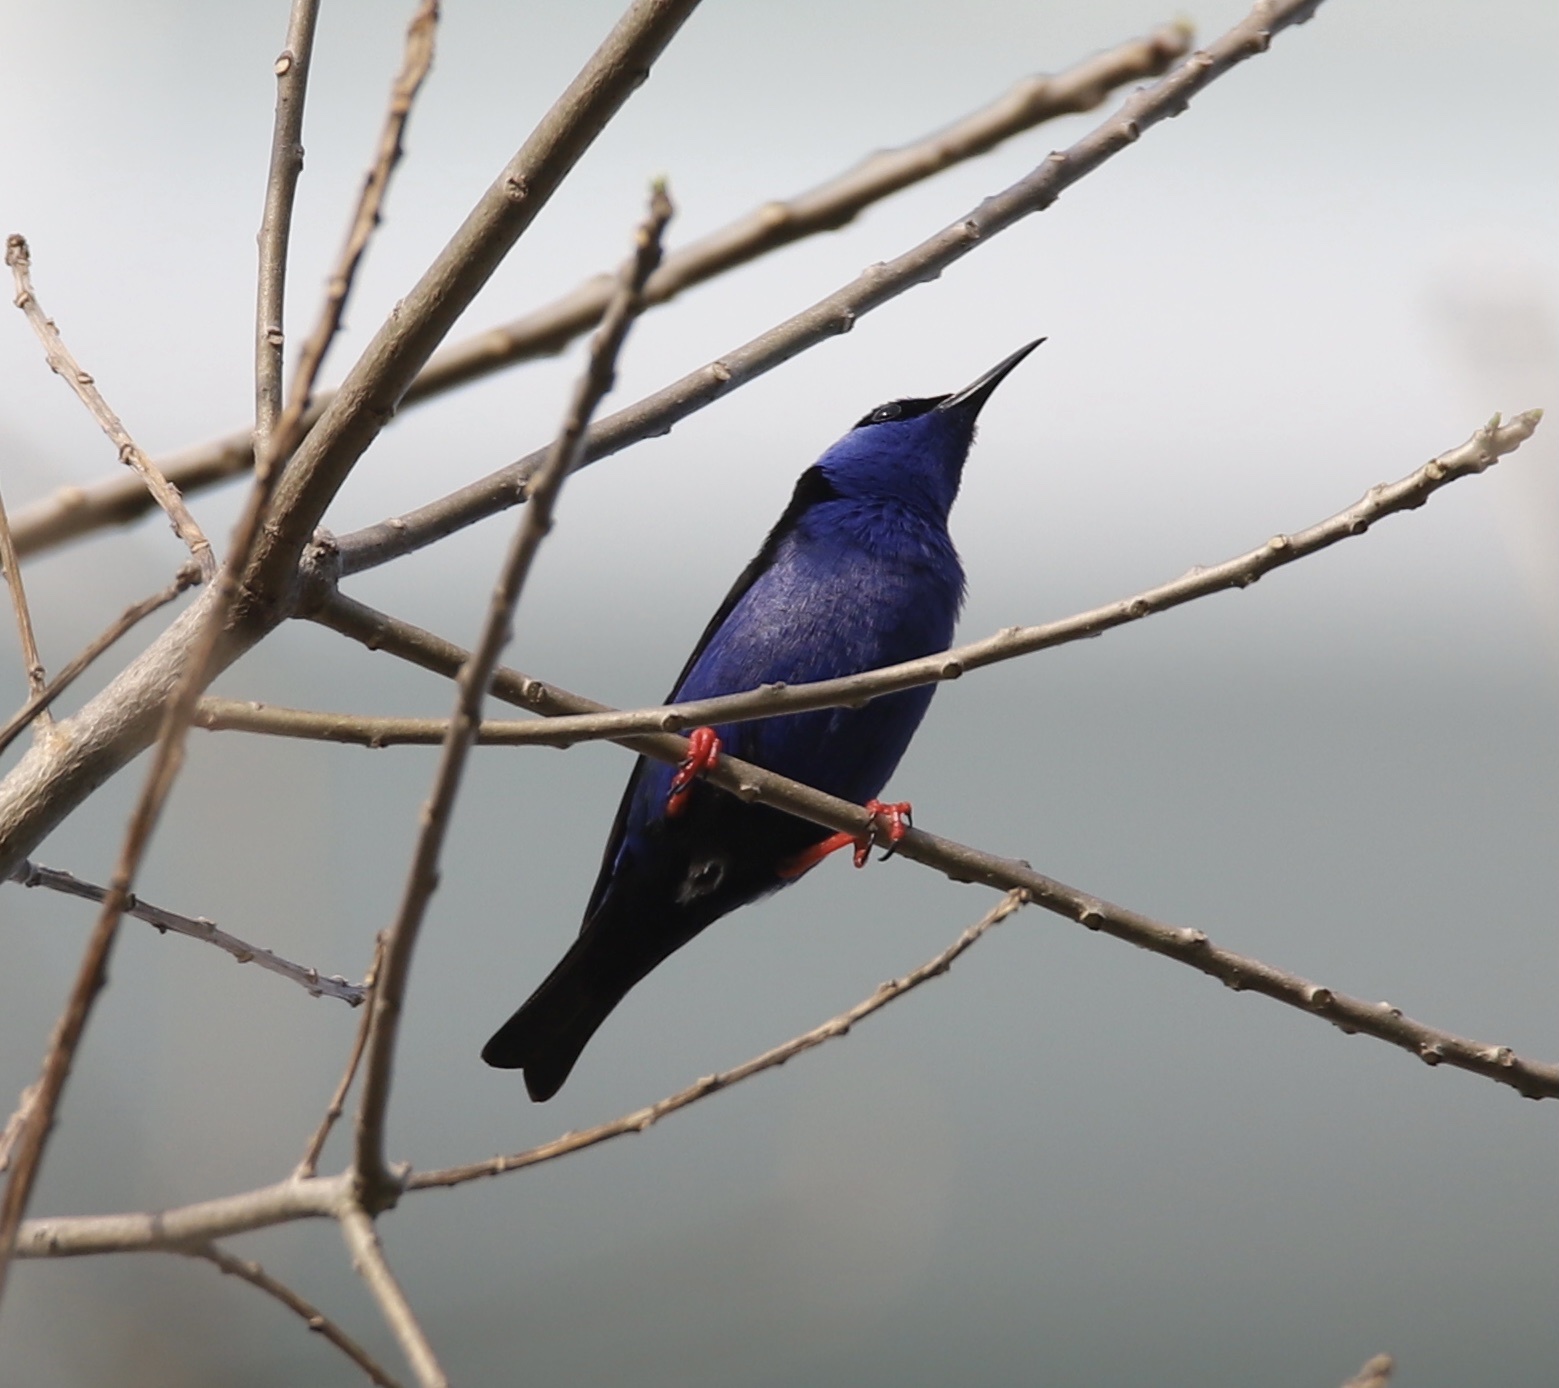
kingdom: Animalia
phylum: Chordata
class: Aves
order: Passeriformes
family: Thraupidae
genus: Cyanerpes
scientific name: Cyanerpes cyaneus
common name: Red-legged honeycreeper
